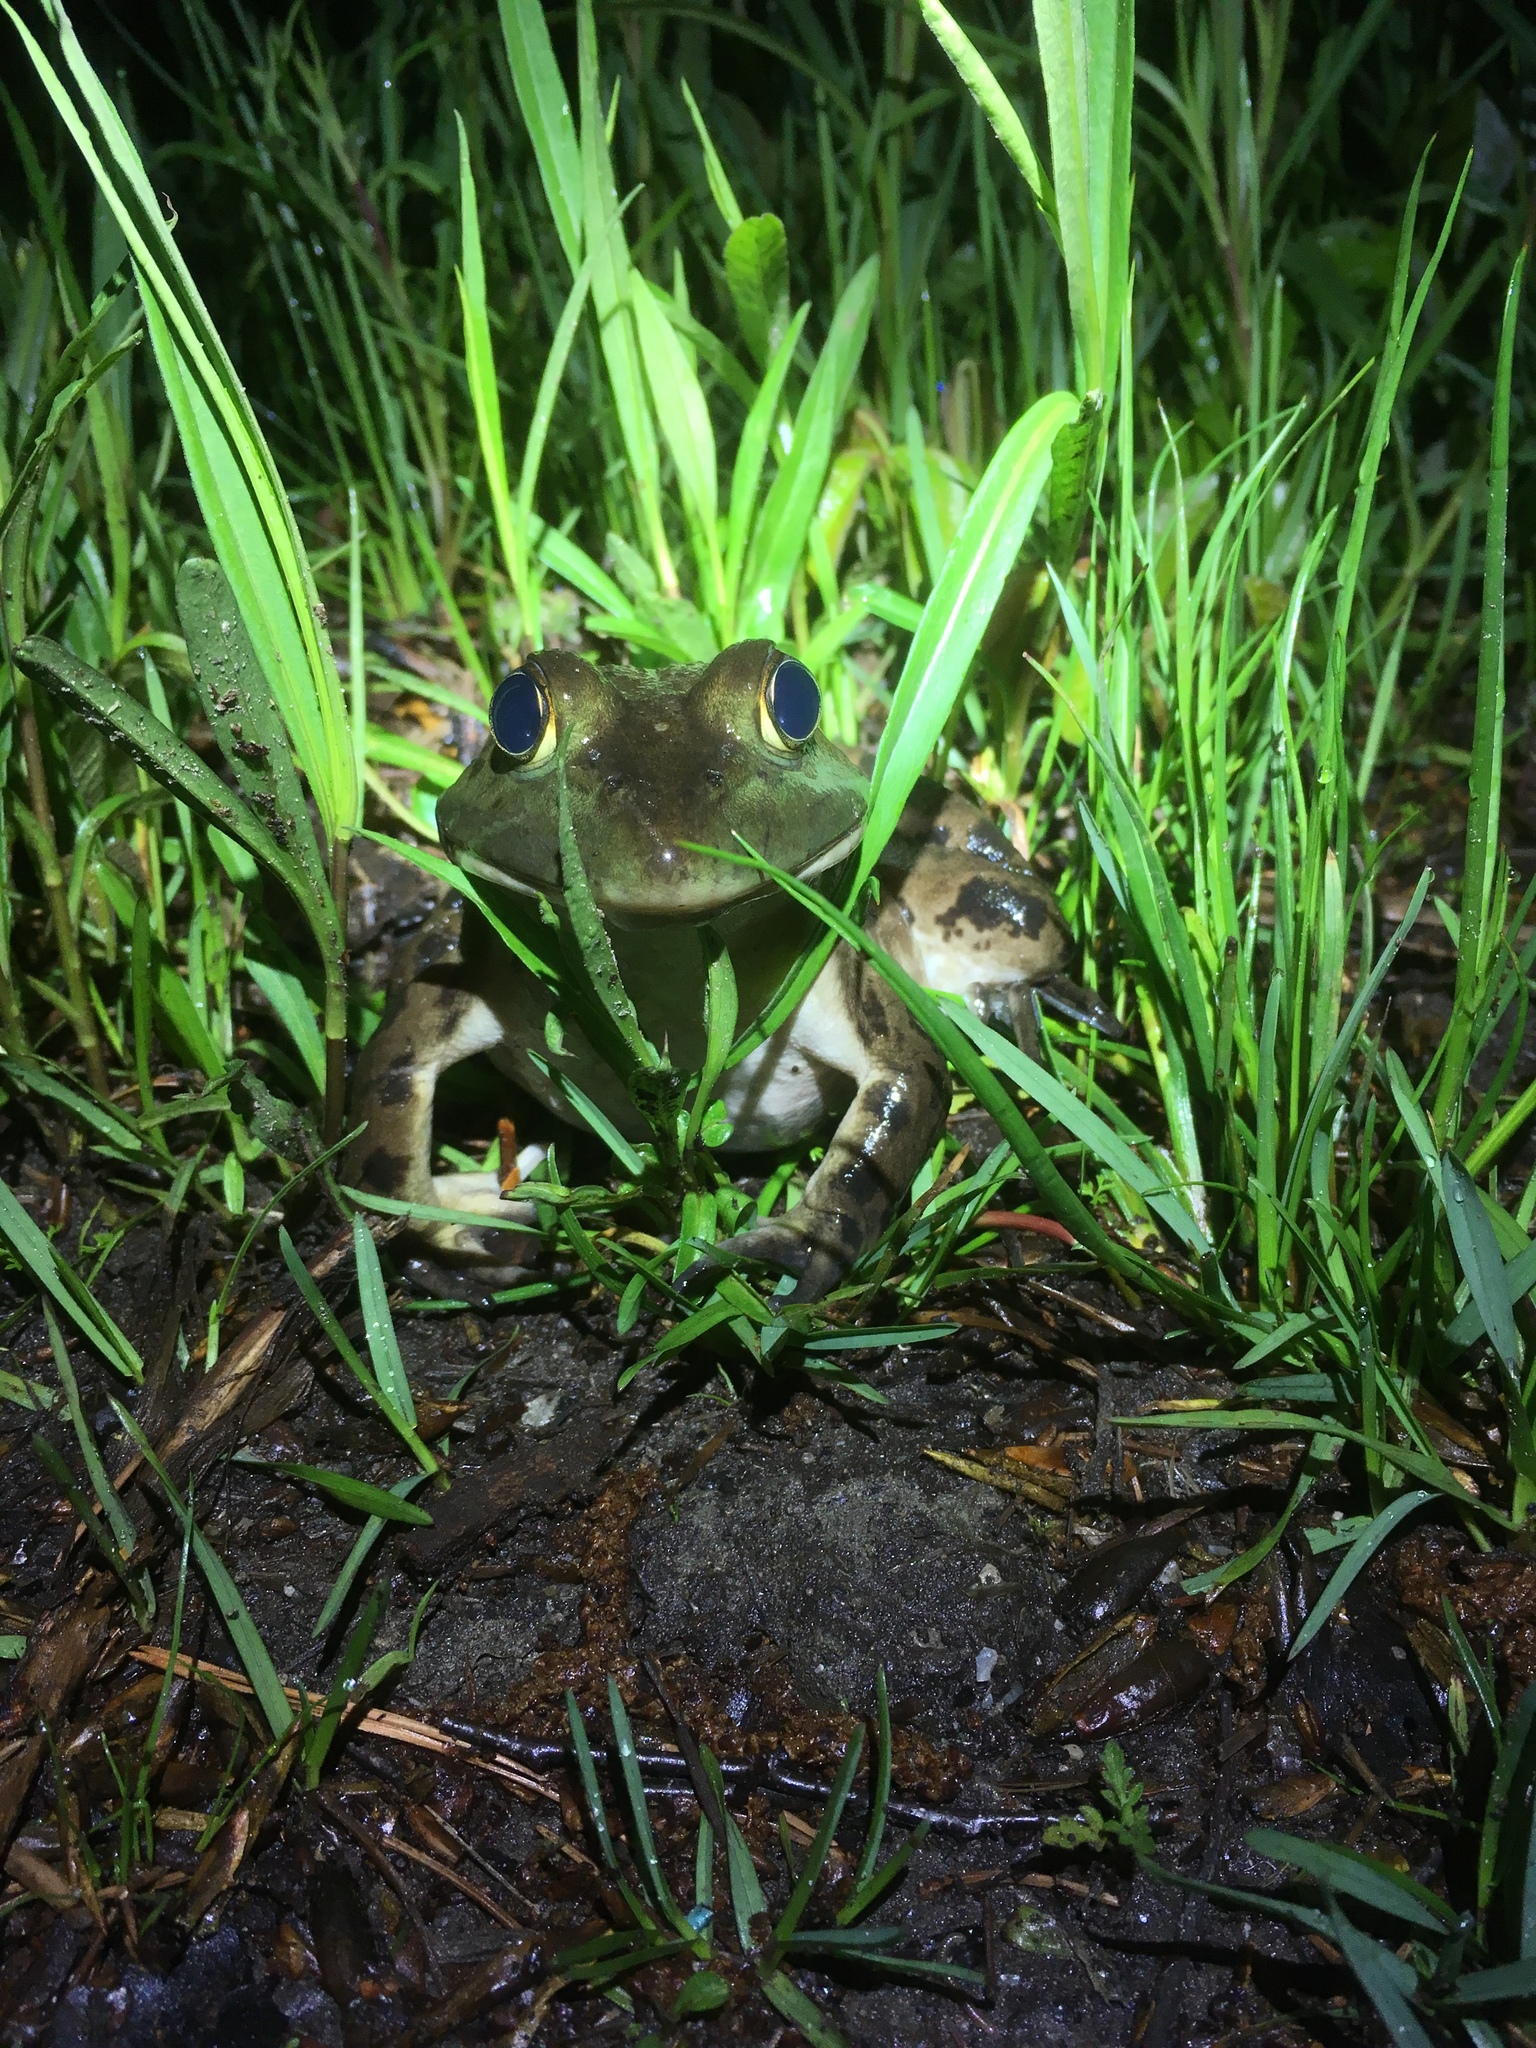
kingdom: Animalia
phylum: Chordata
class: Amphibia
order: Anura
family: Ranidae
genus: Lithobates
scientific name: Lithobates catesbeianus
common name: American bullfrog
